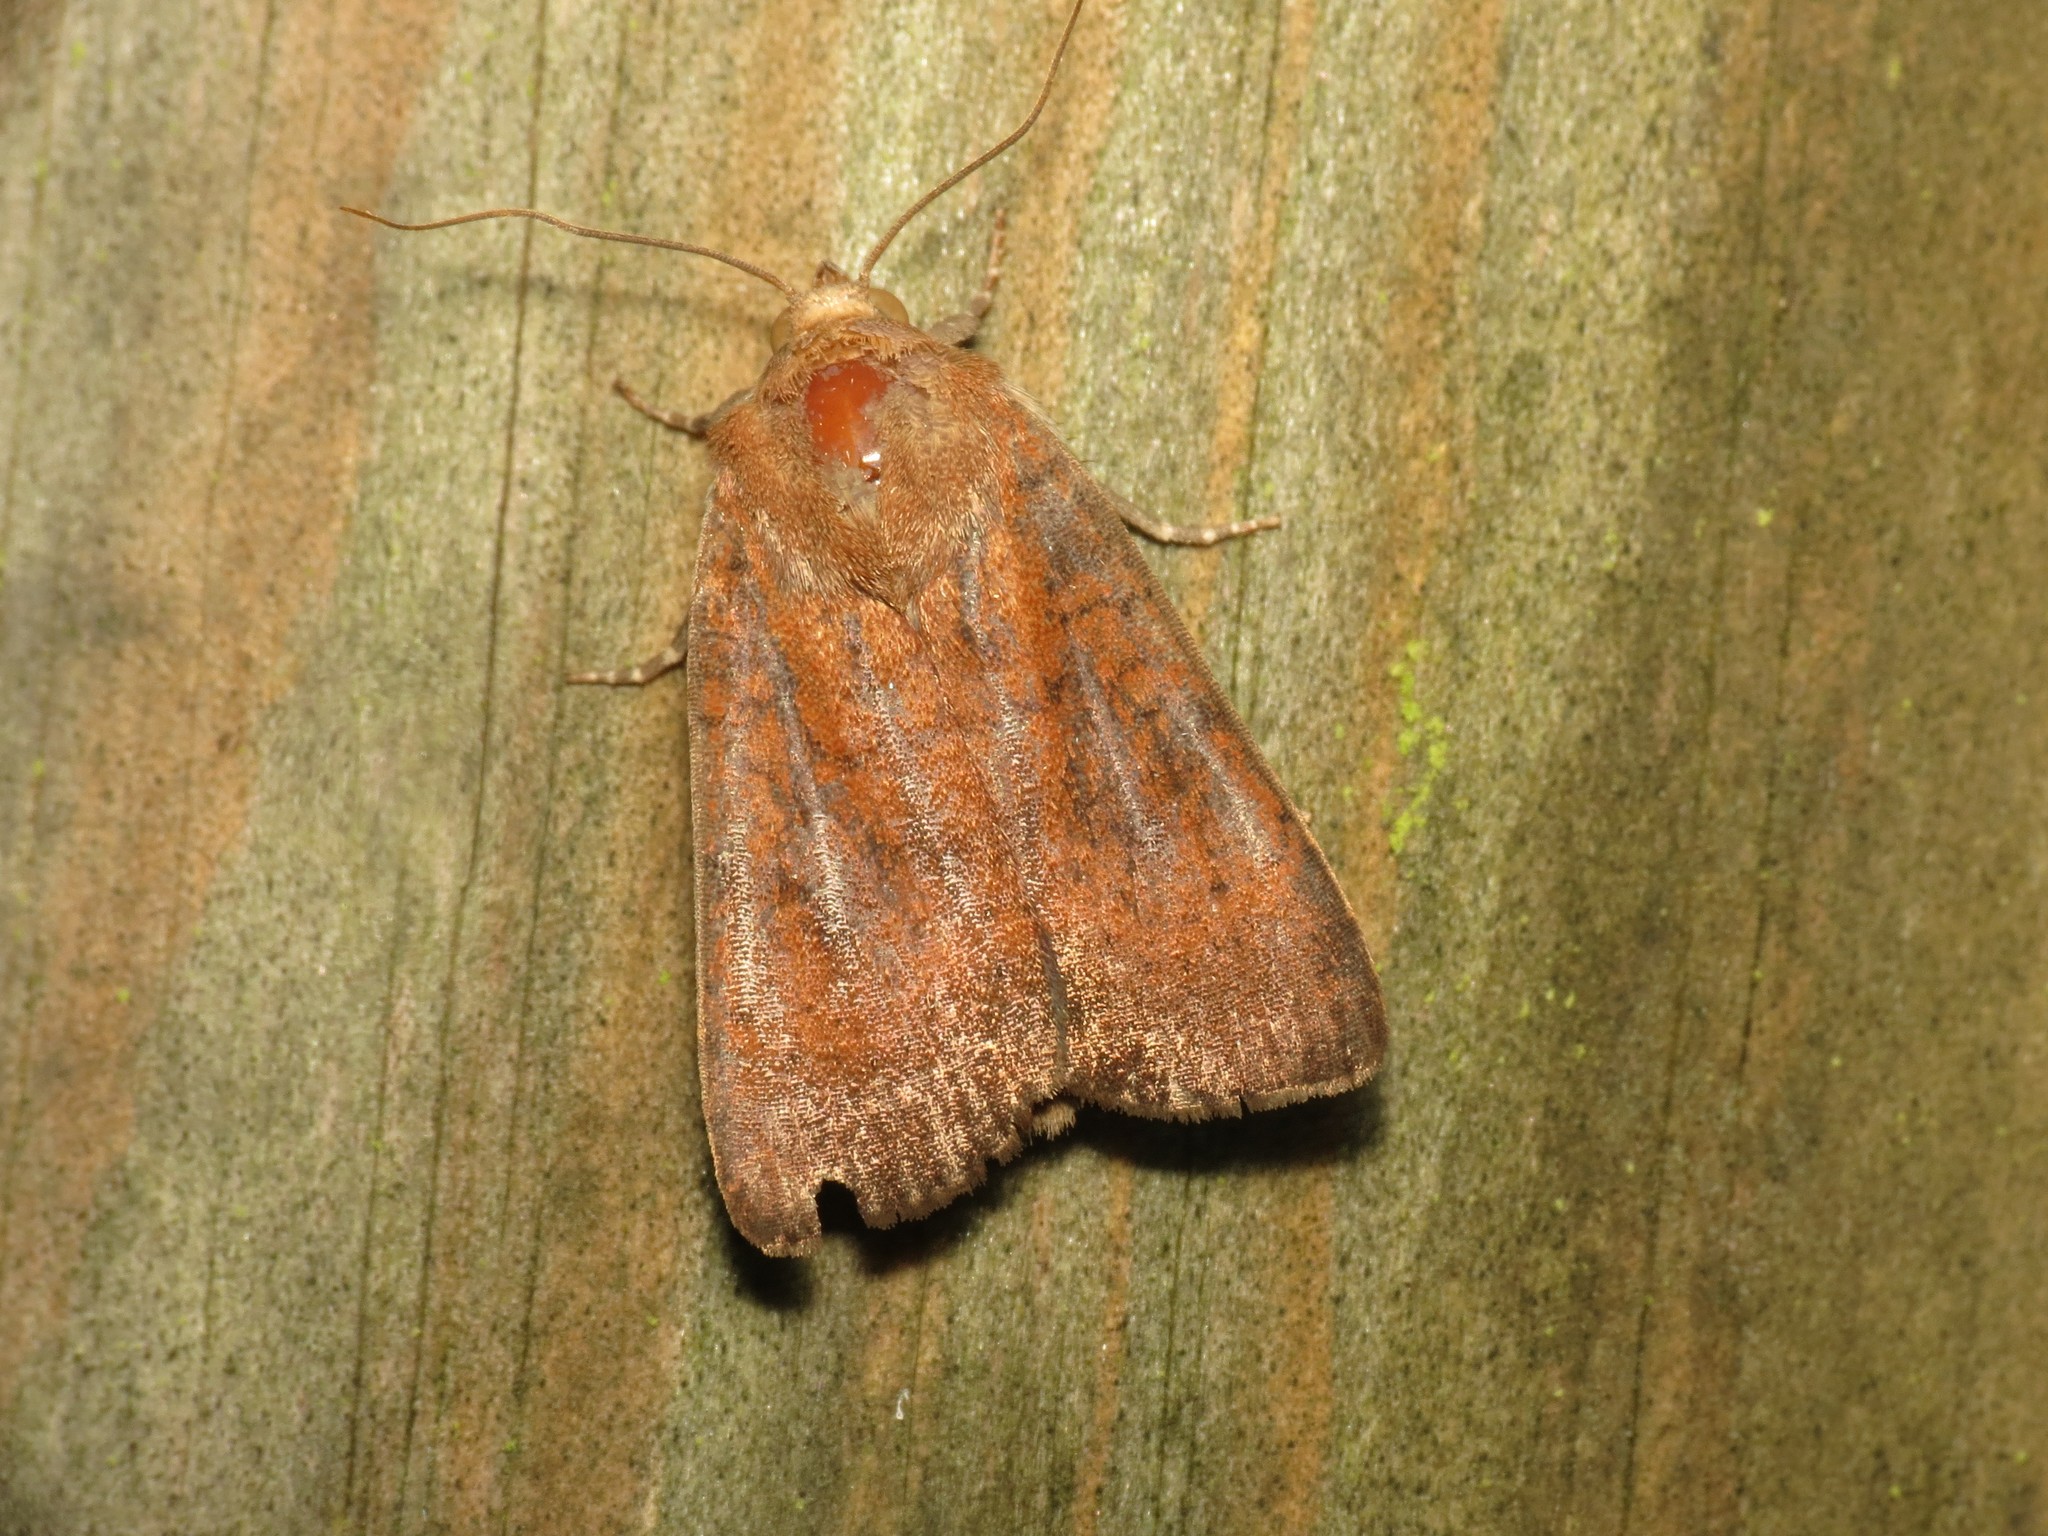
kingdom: Animalia
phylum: Arthropoda
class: Insecta
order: Lepidoptera
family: Noctuidae
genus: Noctua
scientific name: Noctua interjecta
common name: Least yellow underwing
